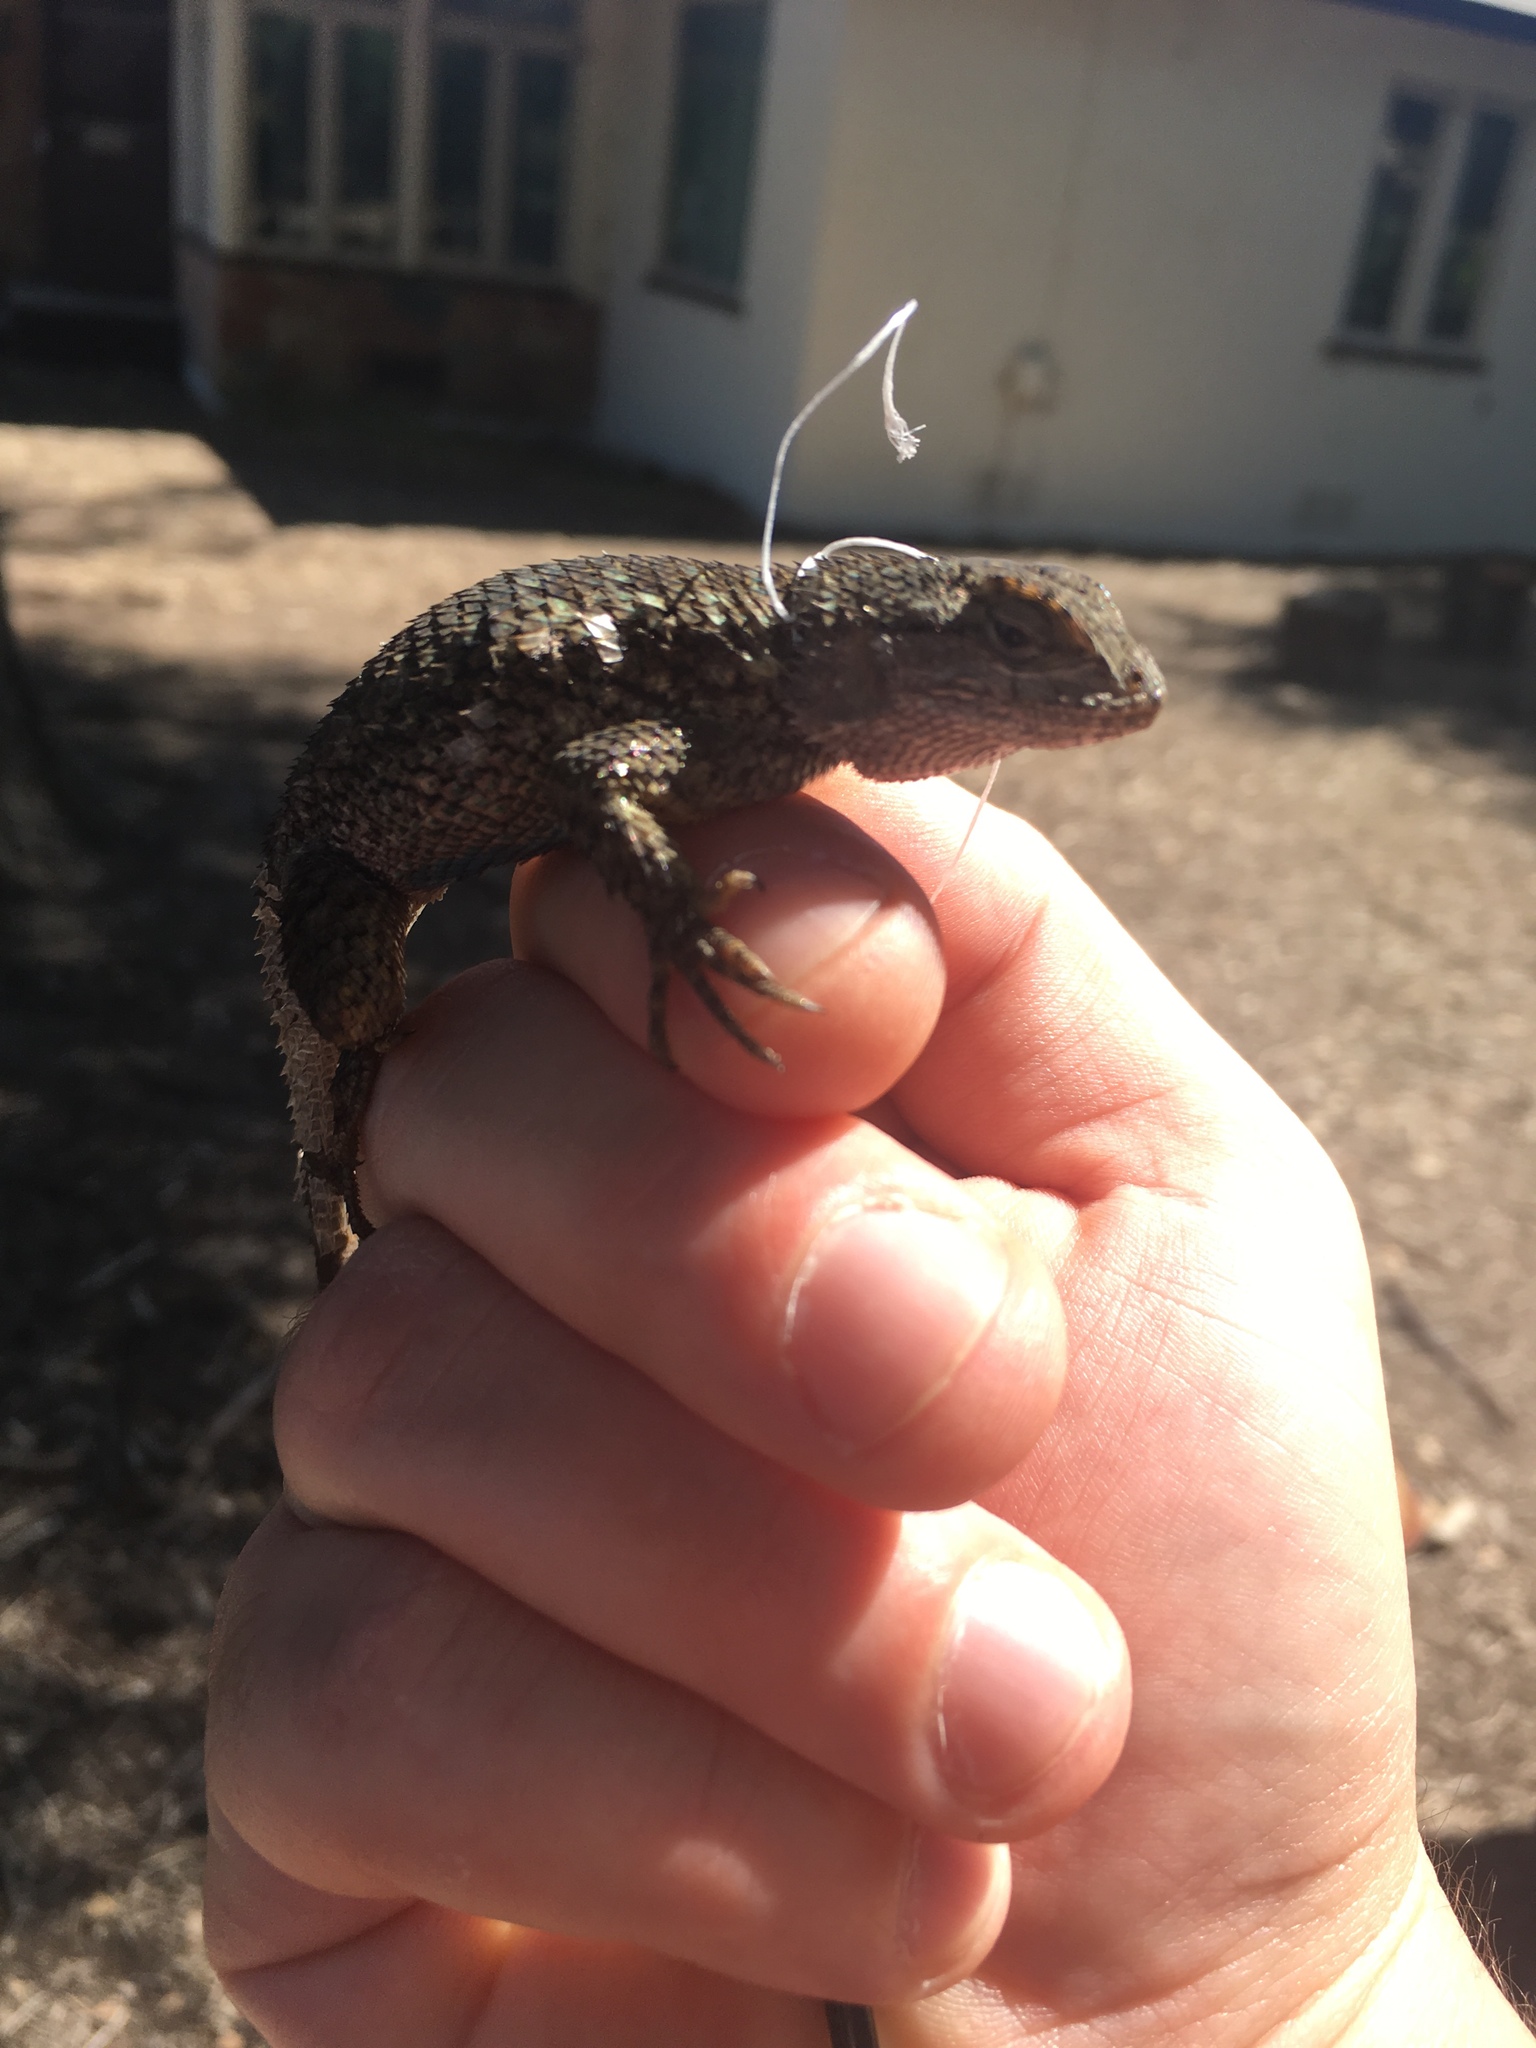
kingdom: Animalia
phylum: Chordata
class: Squamata
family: Phrynosomatidae
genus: Sceloporus
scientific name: Sceloporus occidentalis
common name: Western fence lizard
